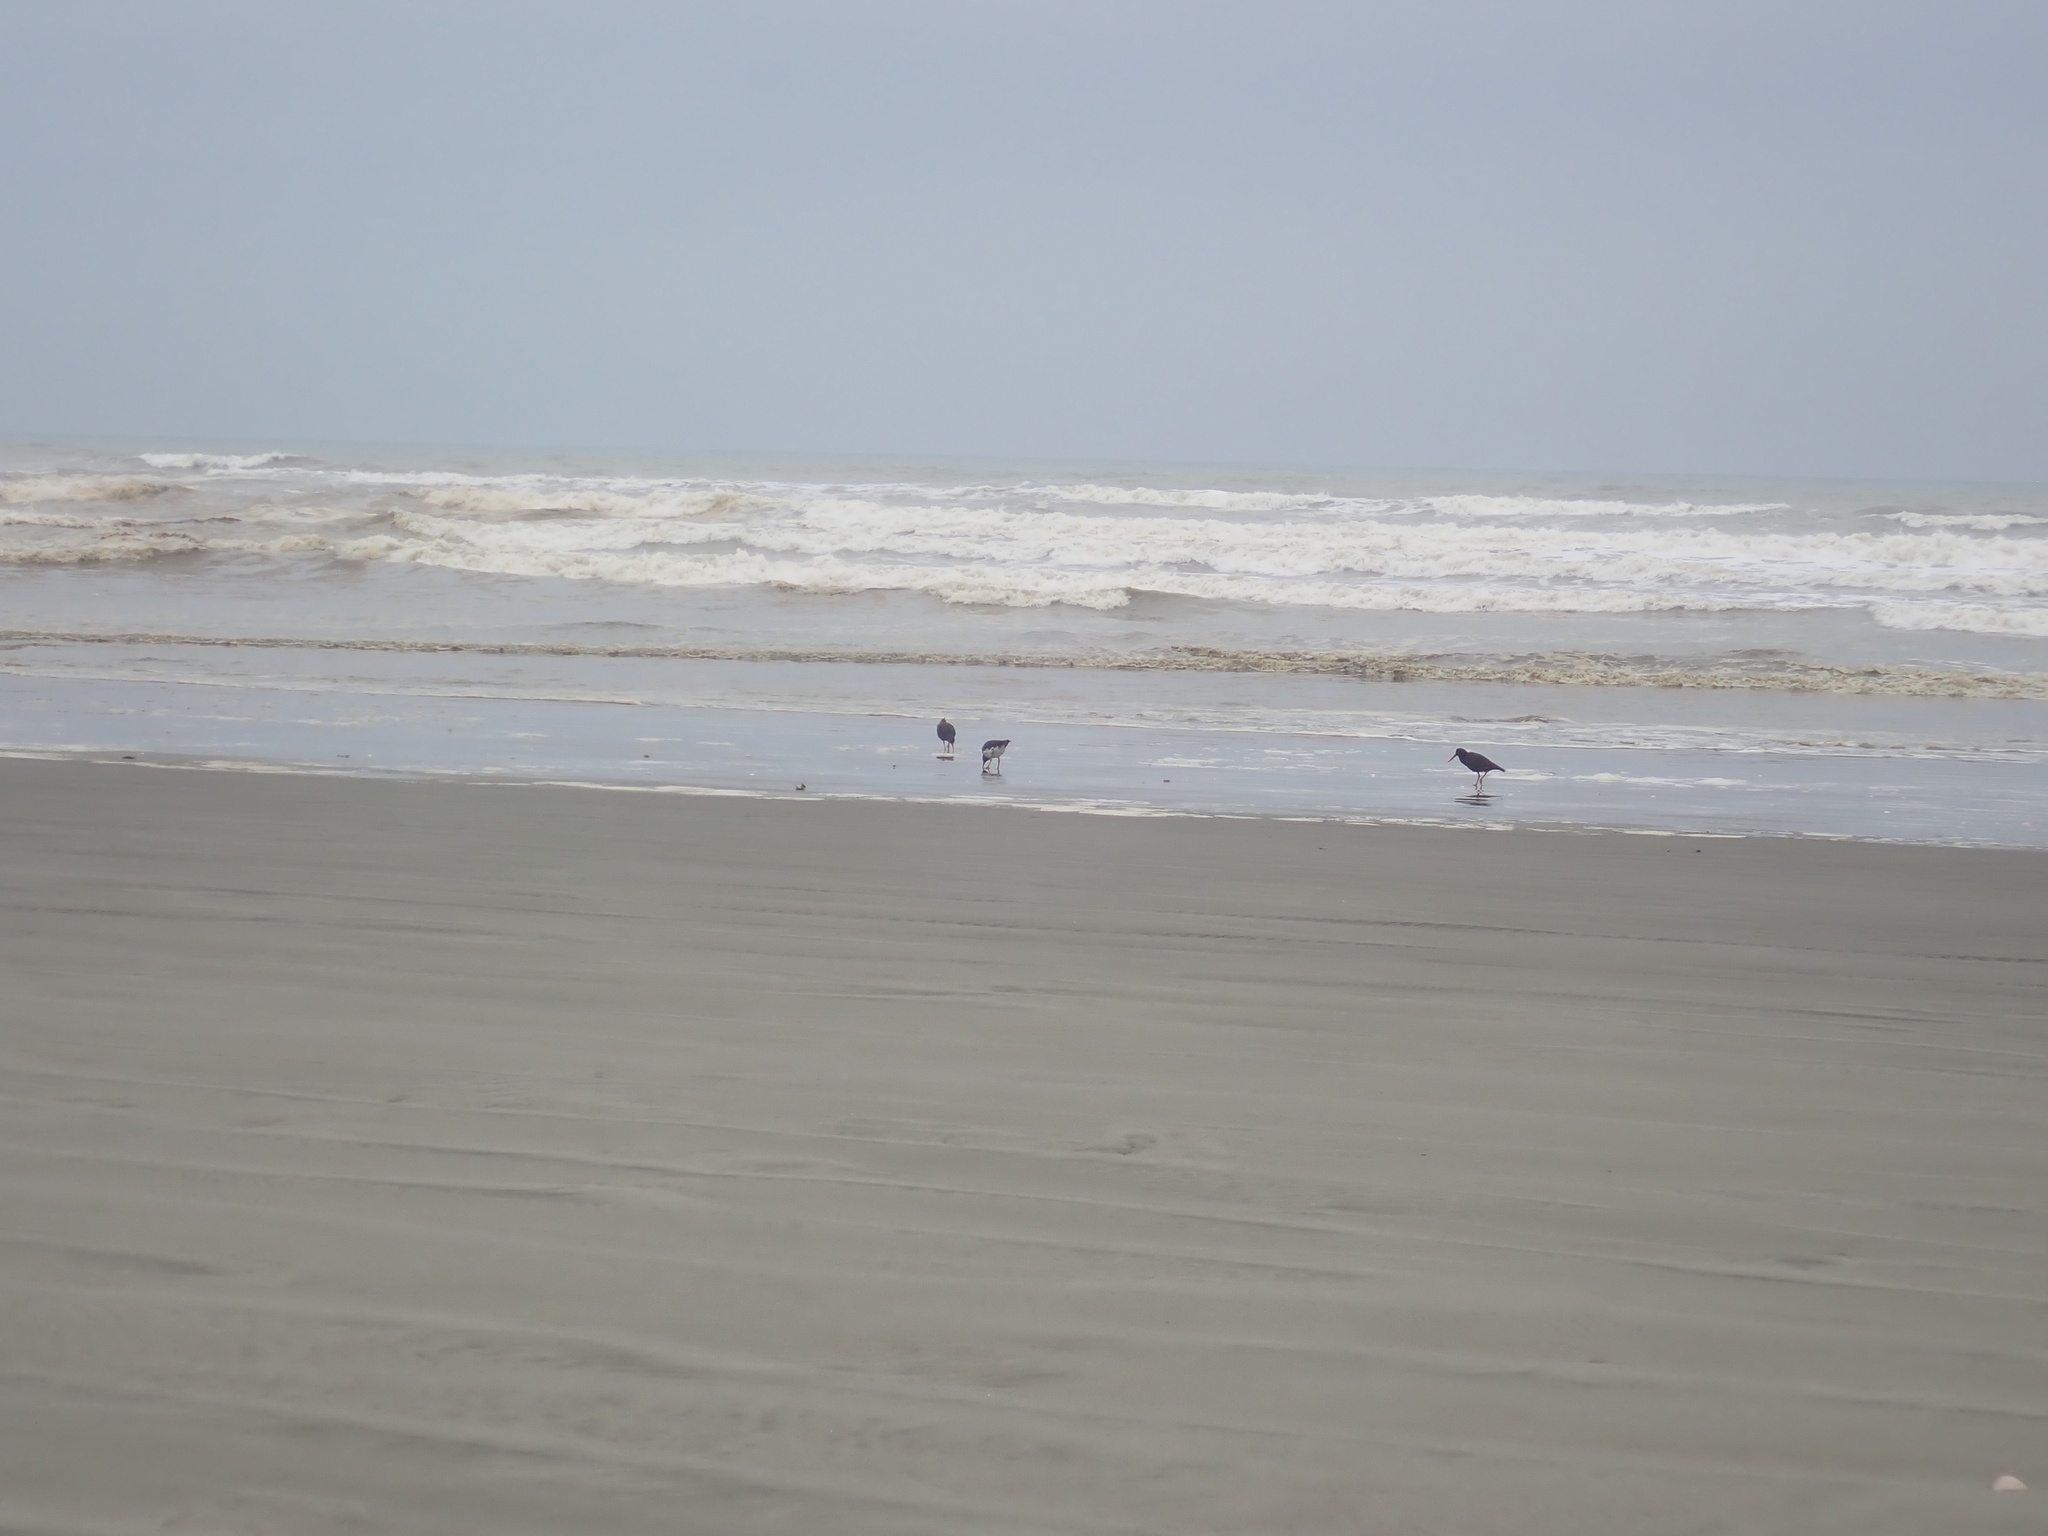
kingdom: Animalia
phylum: Chordata
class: Aves
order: Charadriiformes
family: Haematopodidae
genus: Haematopus
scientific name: Haematopus unicolor
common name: Variable oystercatcher
